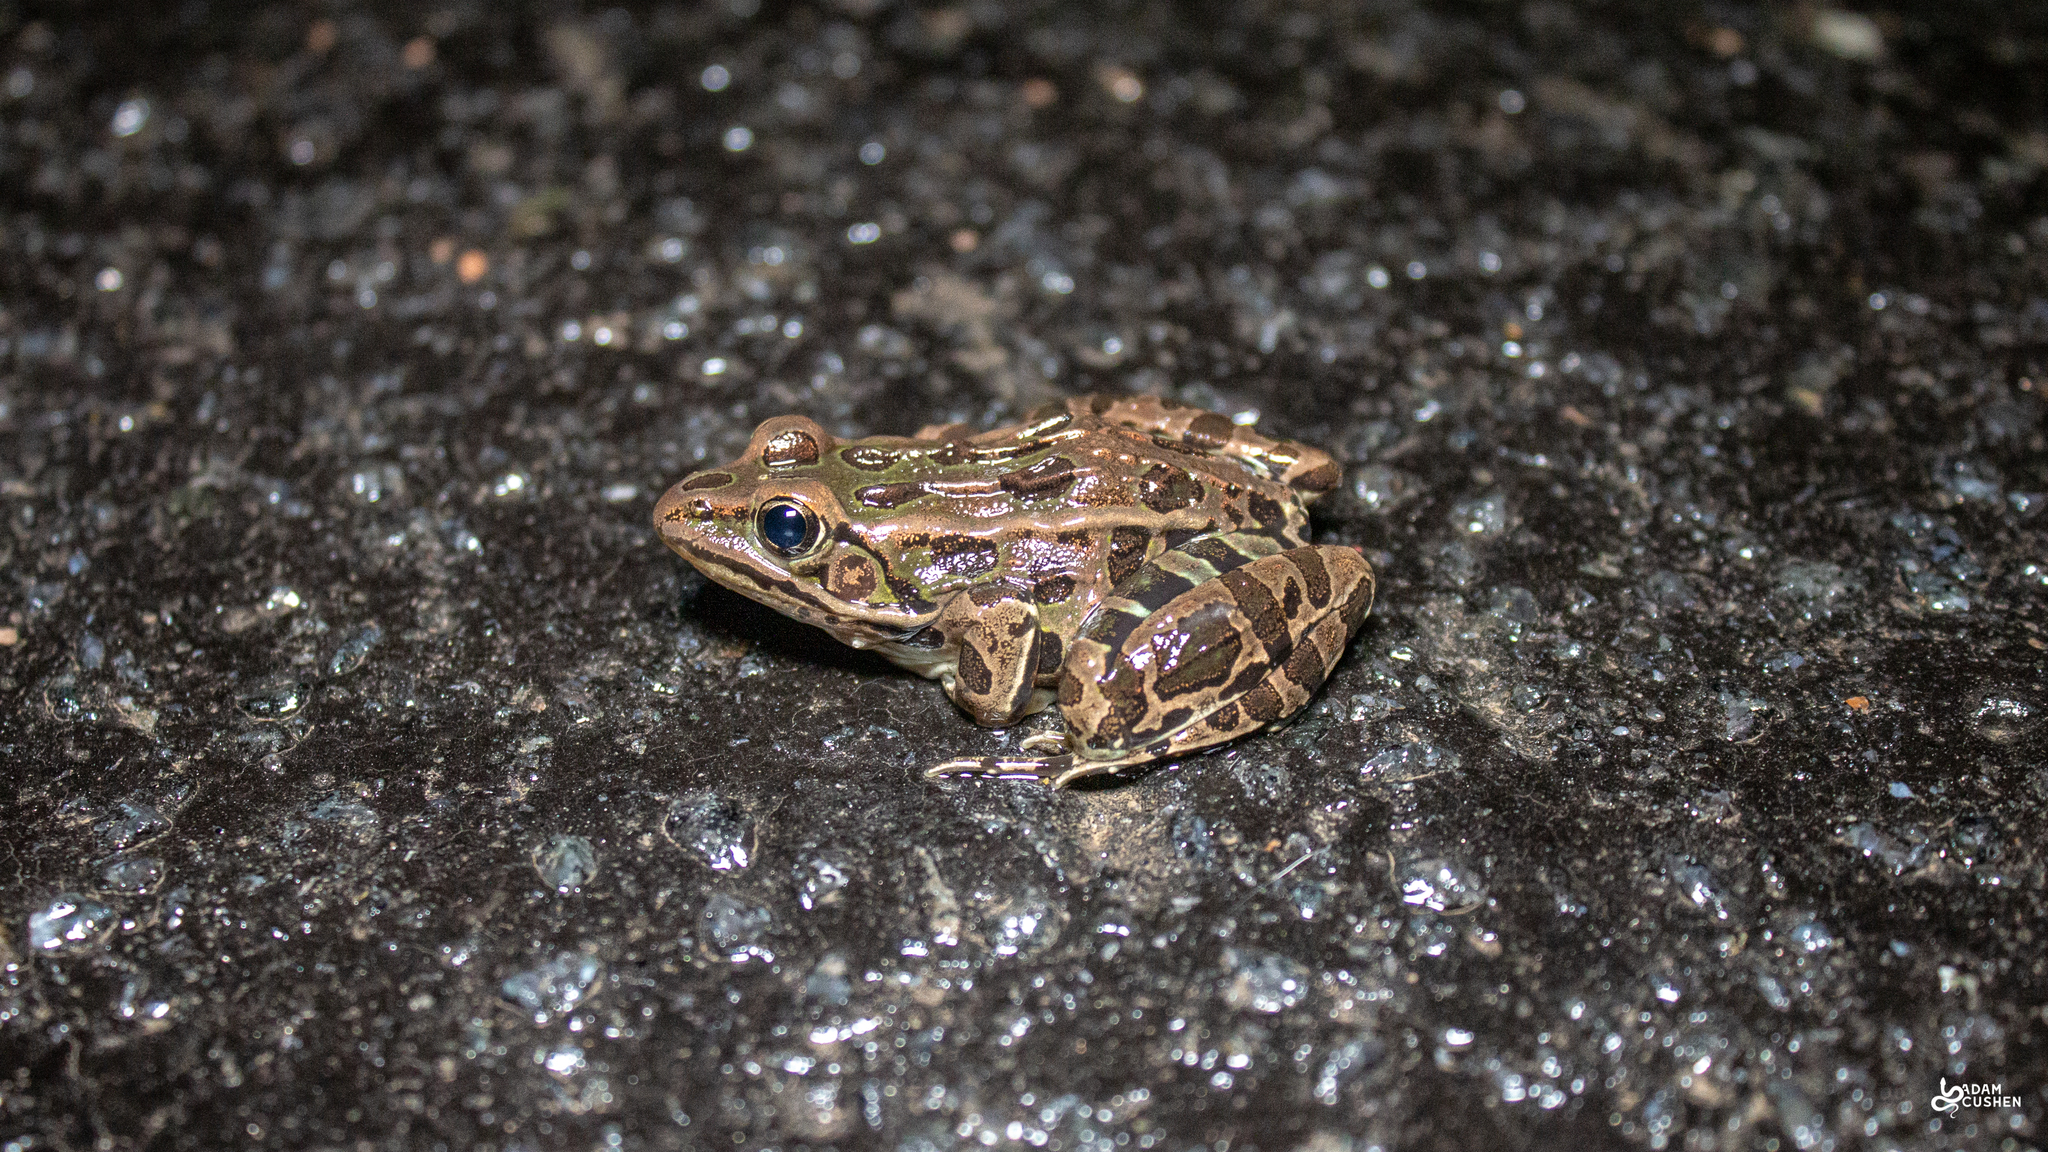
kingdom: Animalia
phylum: Chordata
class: Amphibia
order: Anura
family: Ranidae
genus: Lithobates
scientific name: Lithobates pipiens
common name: Northern leopard frog
